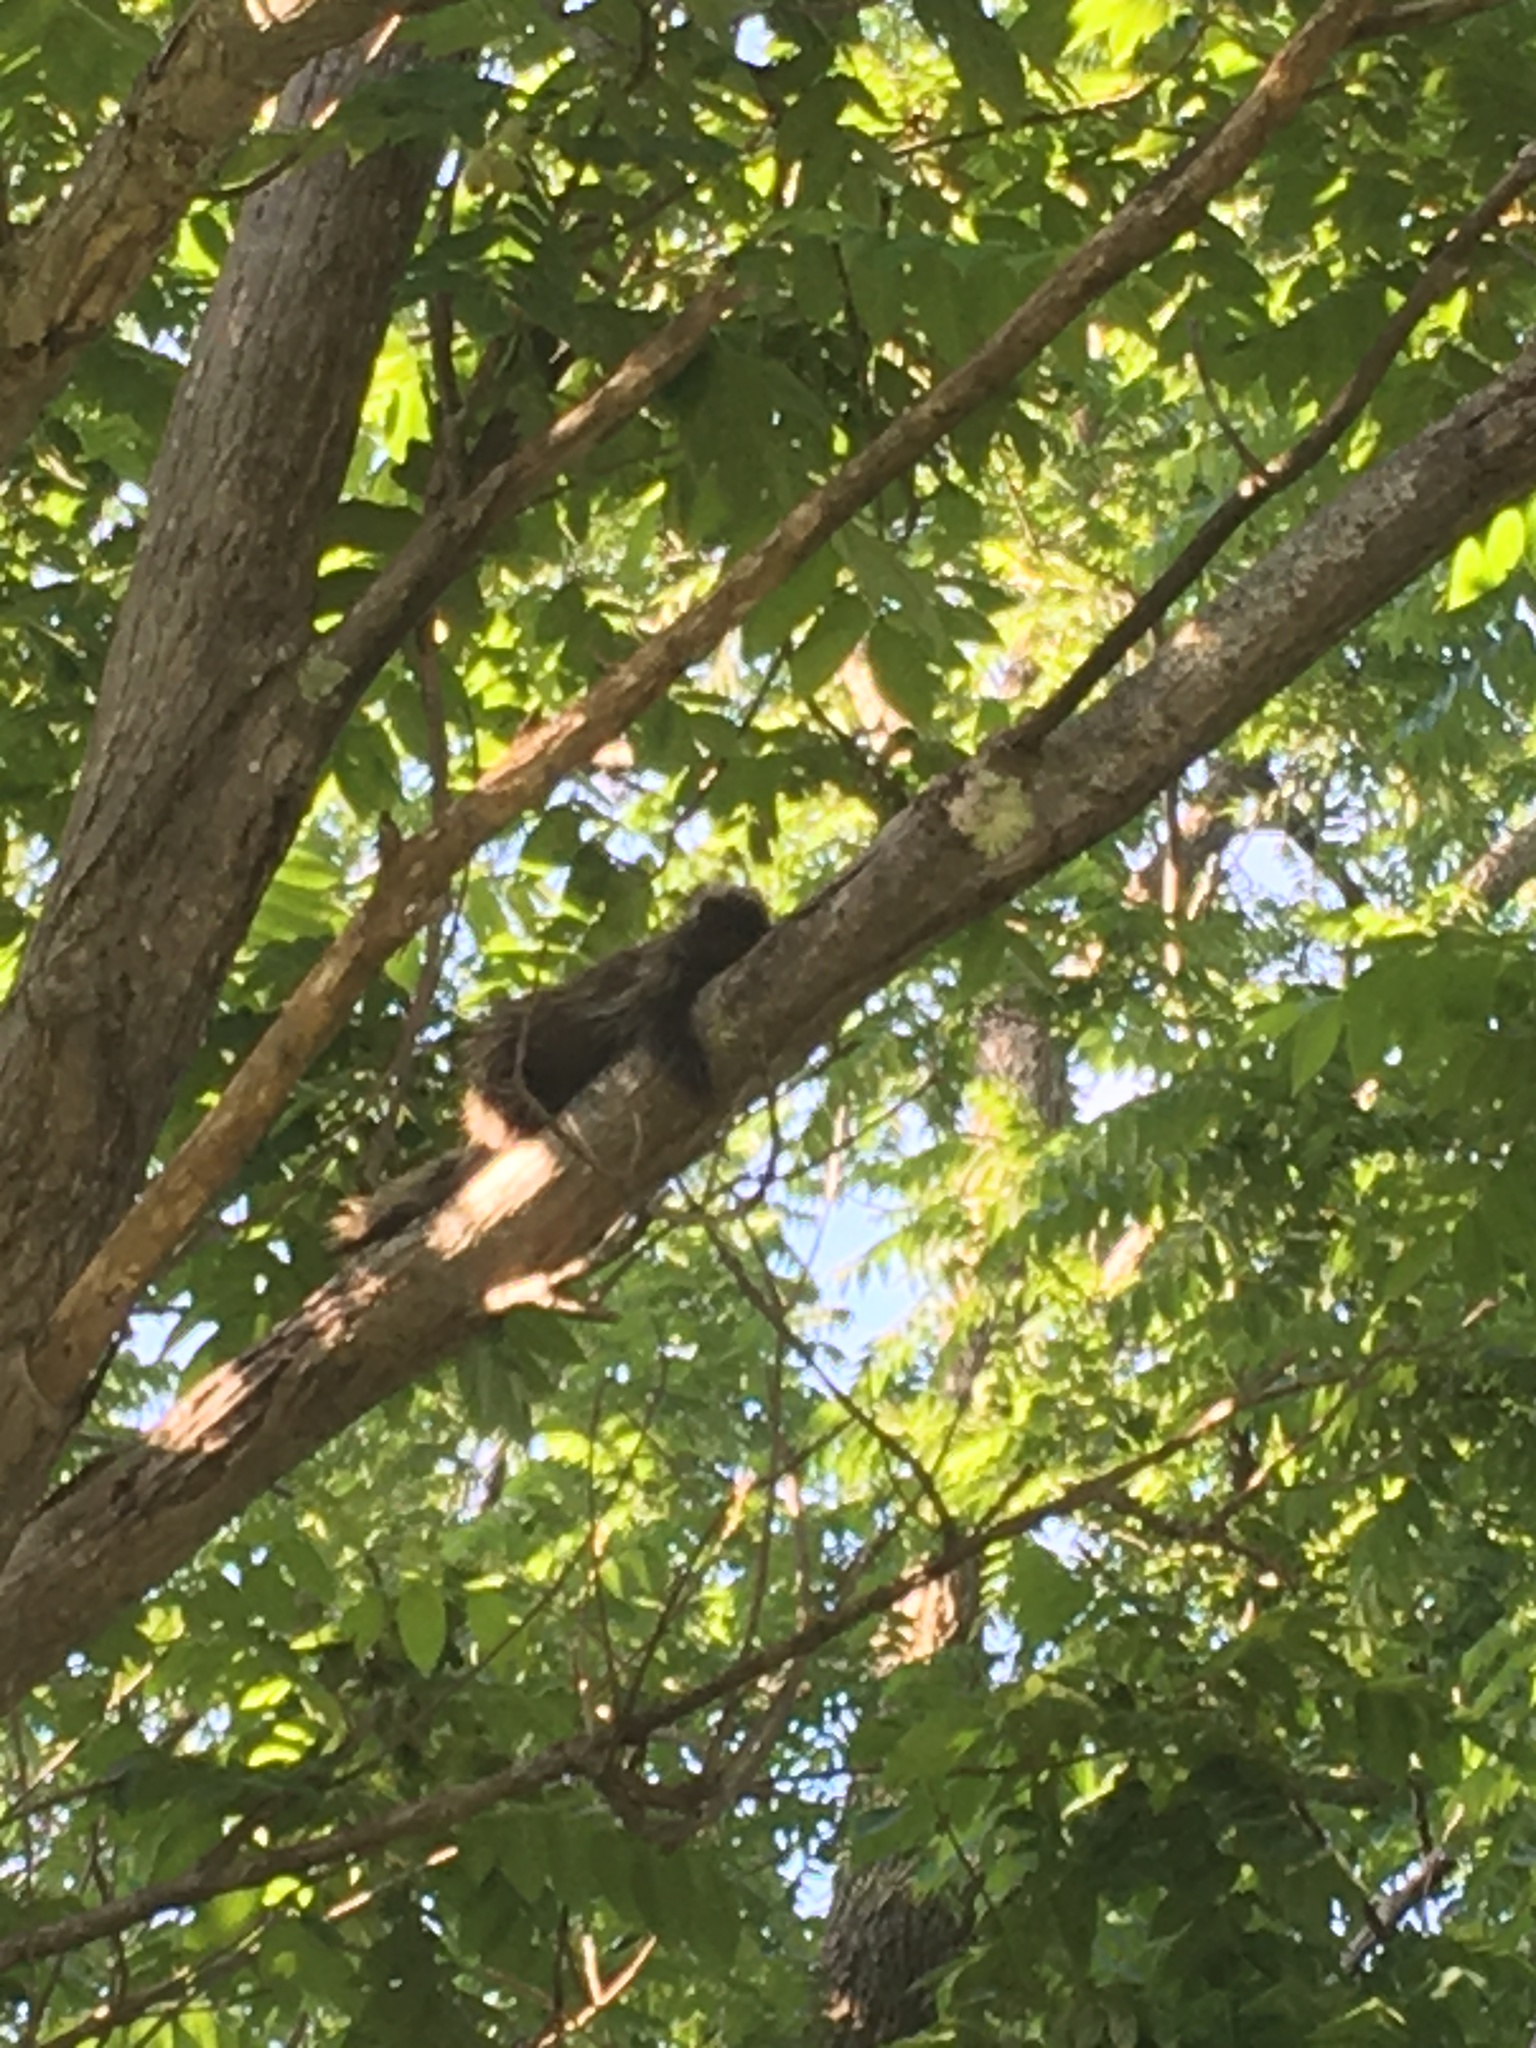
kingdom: Animalia
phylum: Chordata
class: Mammalia
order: Rodentia
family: Erethizontidae
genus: Erethizon
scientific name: Erethizon dorsatus
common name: North american porcupine
